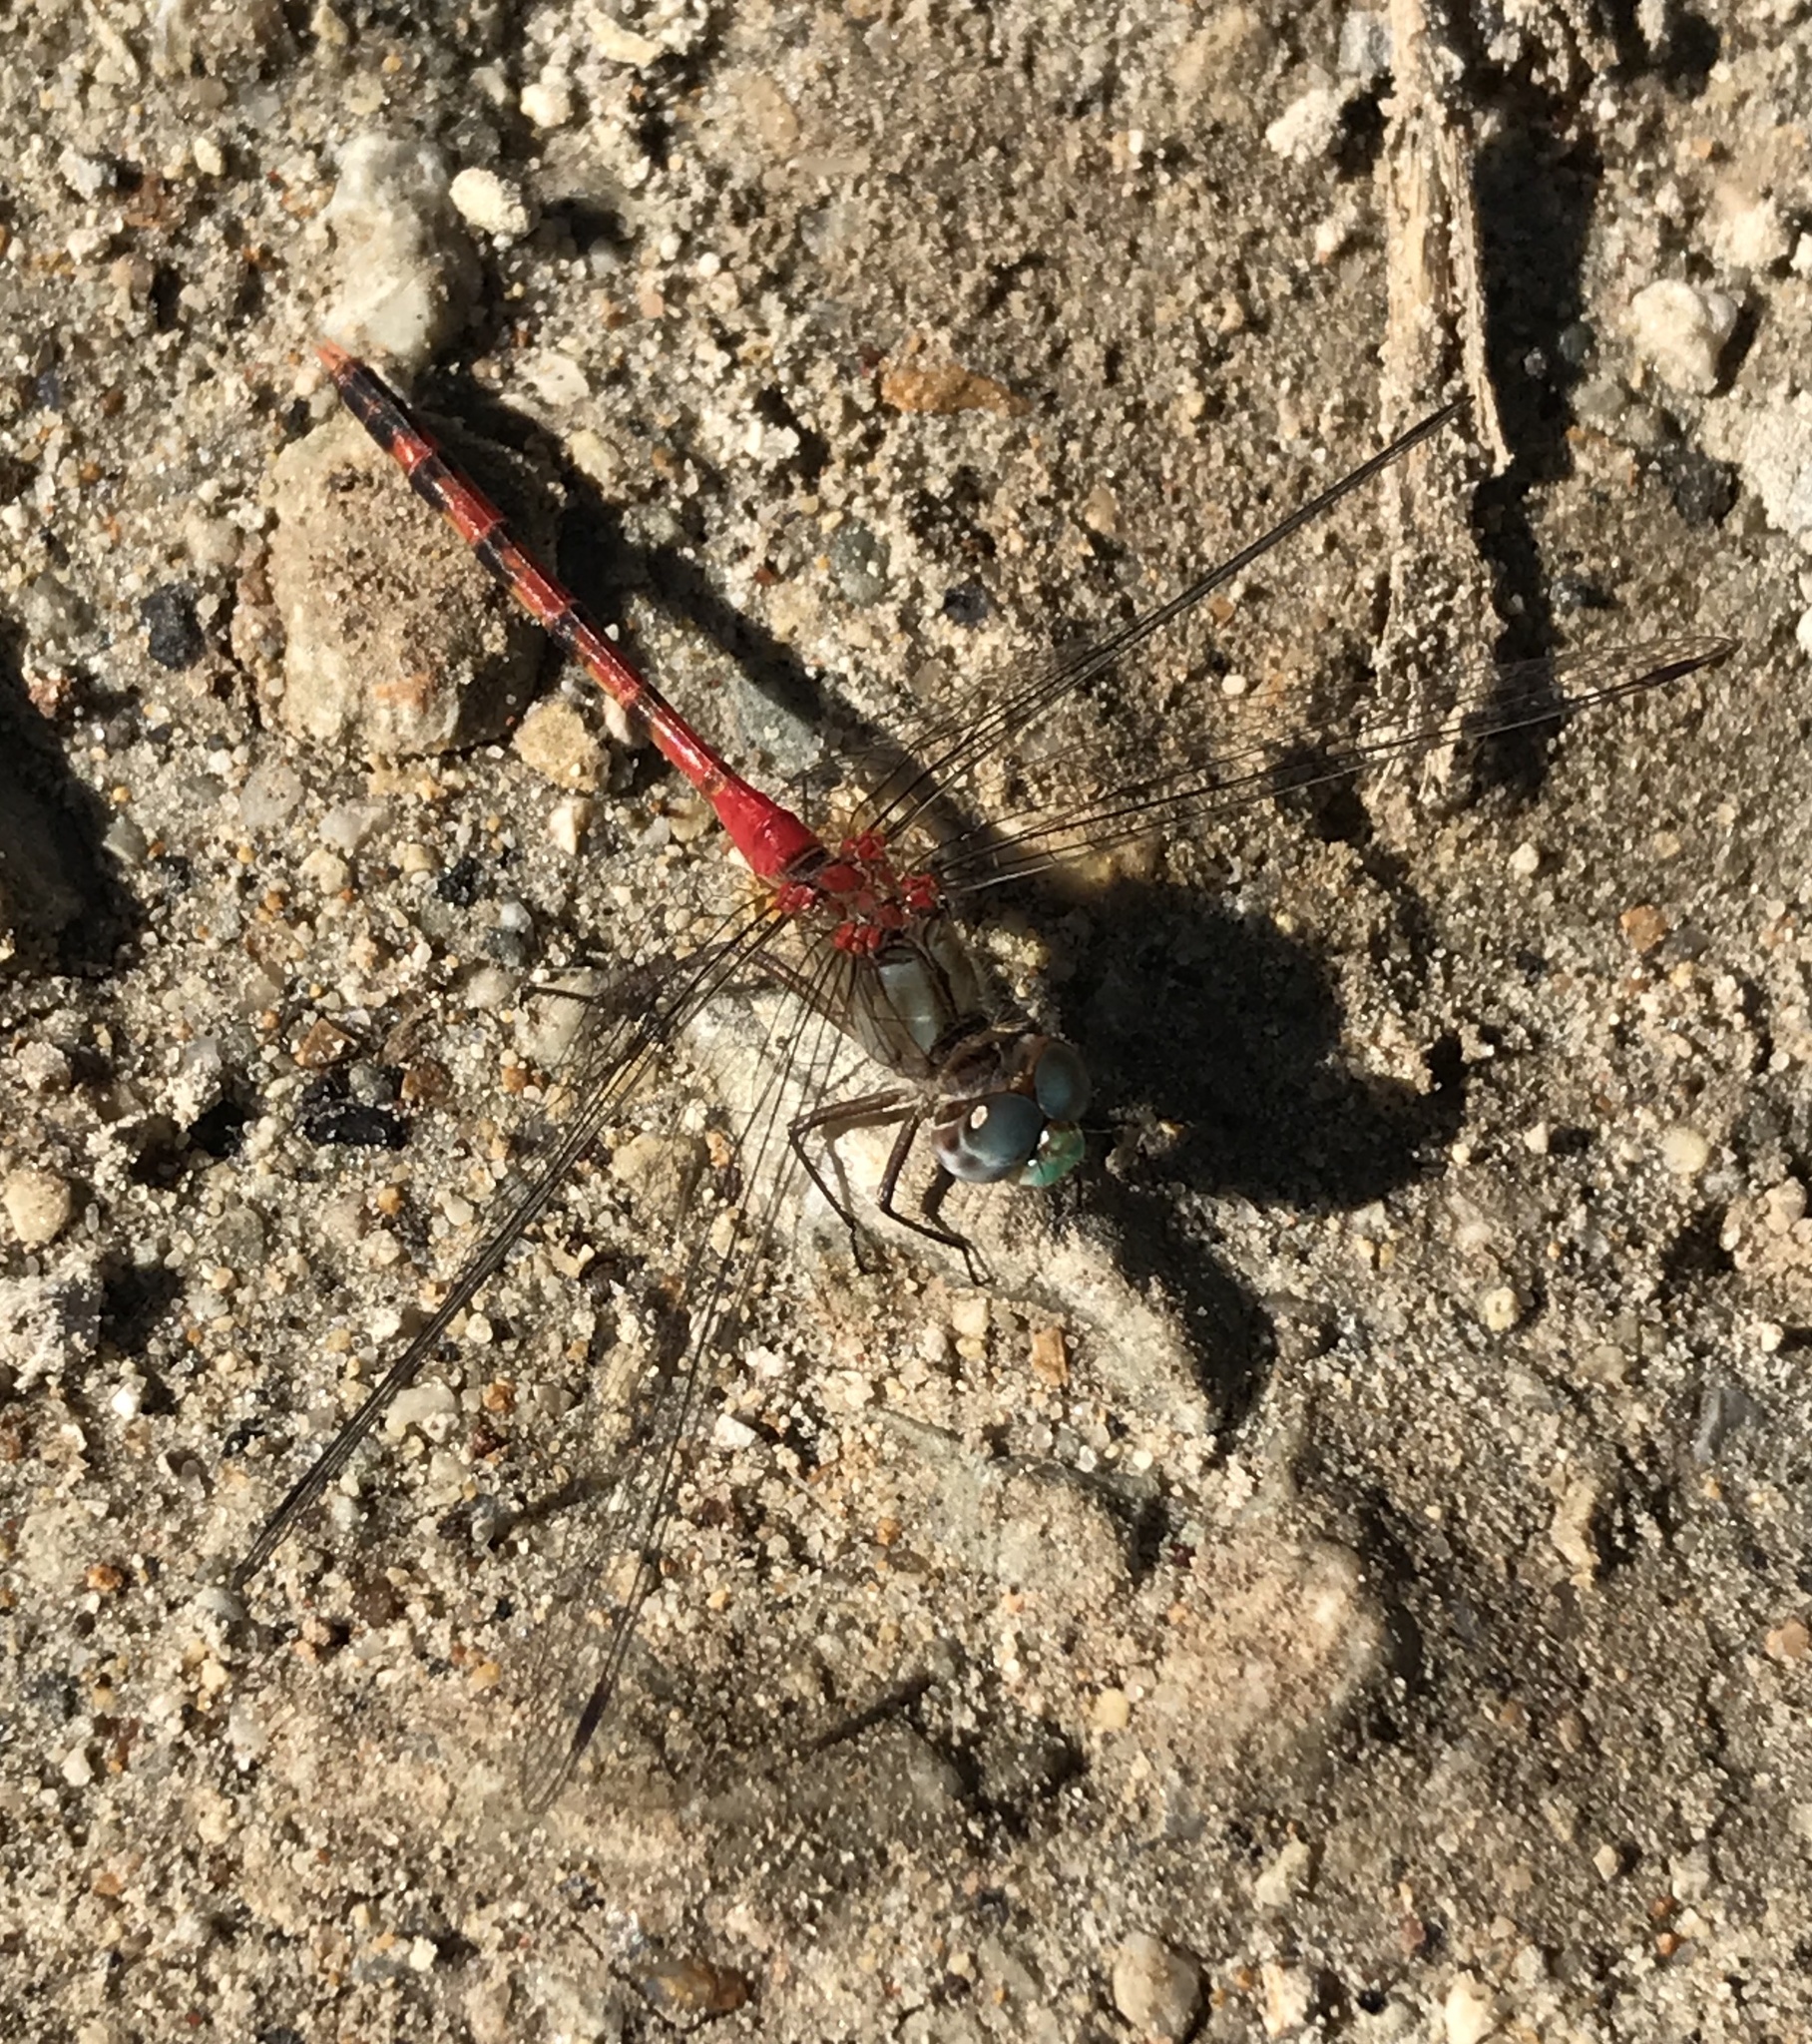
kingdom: Animalia
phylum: Arthropoda
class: Insecta
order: Odonata
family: Libellulidae
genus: Sympetrum
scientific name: Sympetrum ambiguum
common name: Blue-faced meadowhawk
